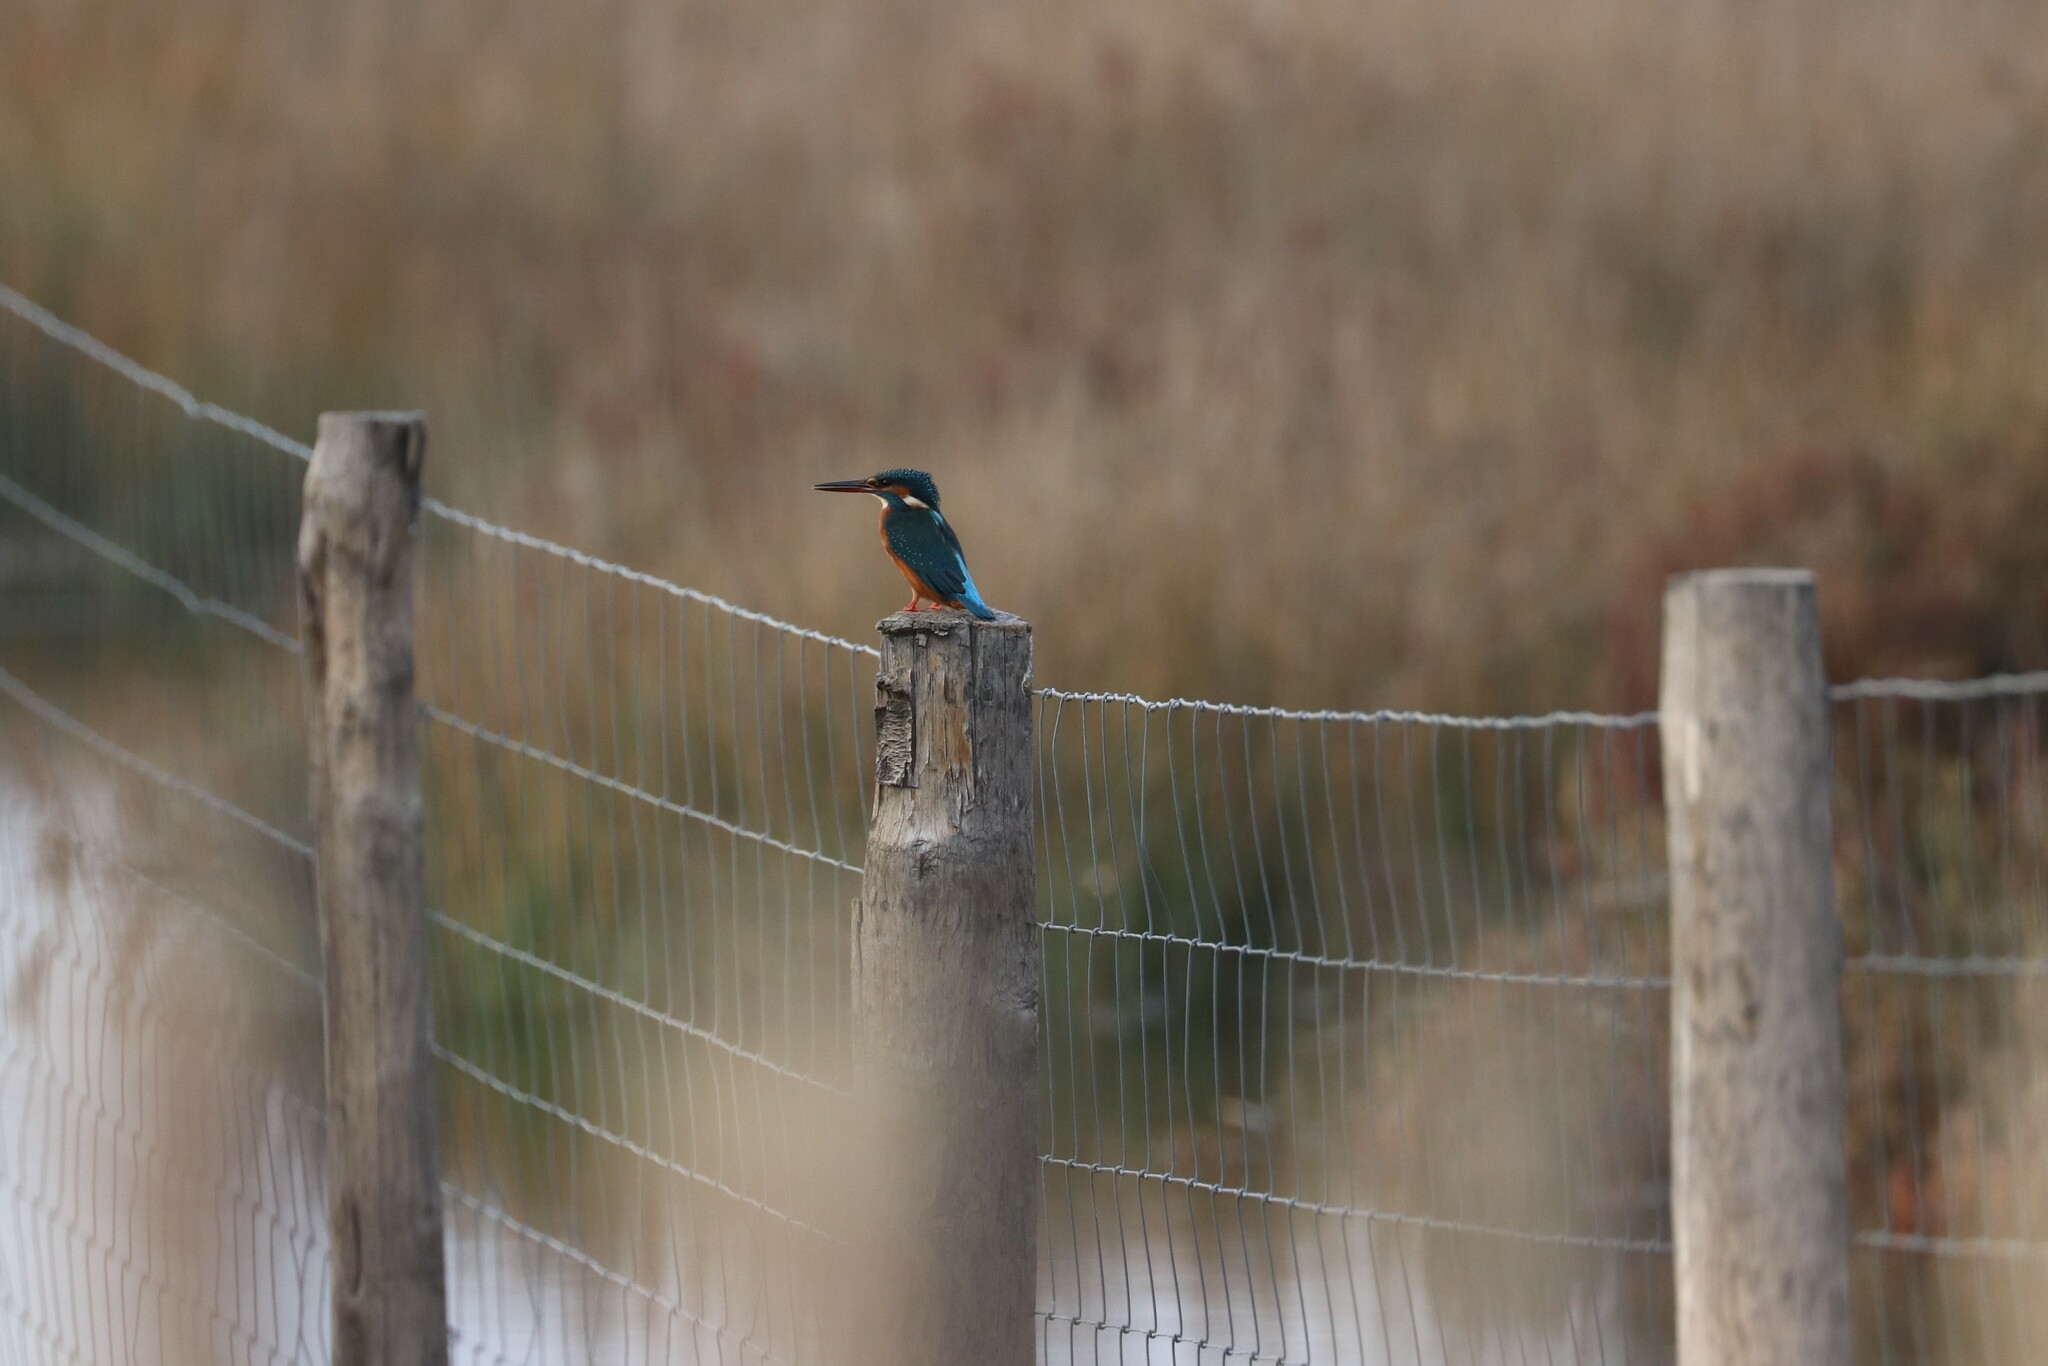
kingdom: Animalia
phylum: Chordata
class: Aves
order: Coraciiformes
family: Alcedinidae
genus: Alcedo
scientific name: Alcedo atthis
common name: Common kingfisher
